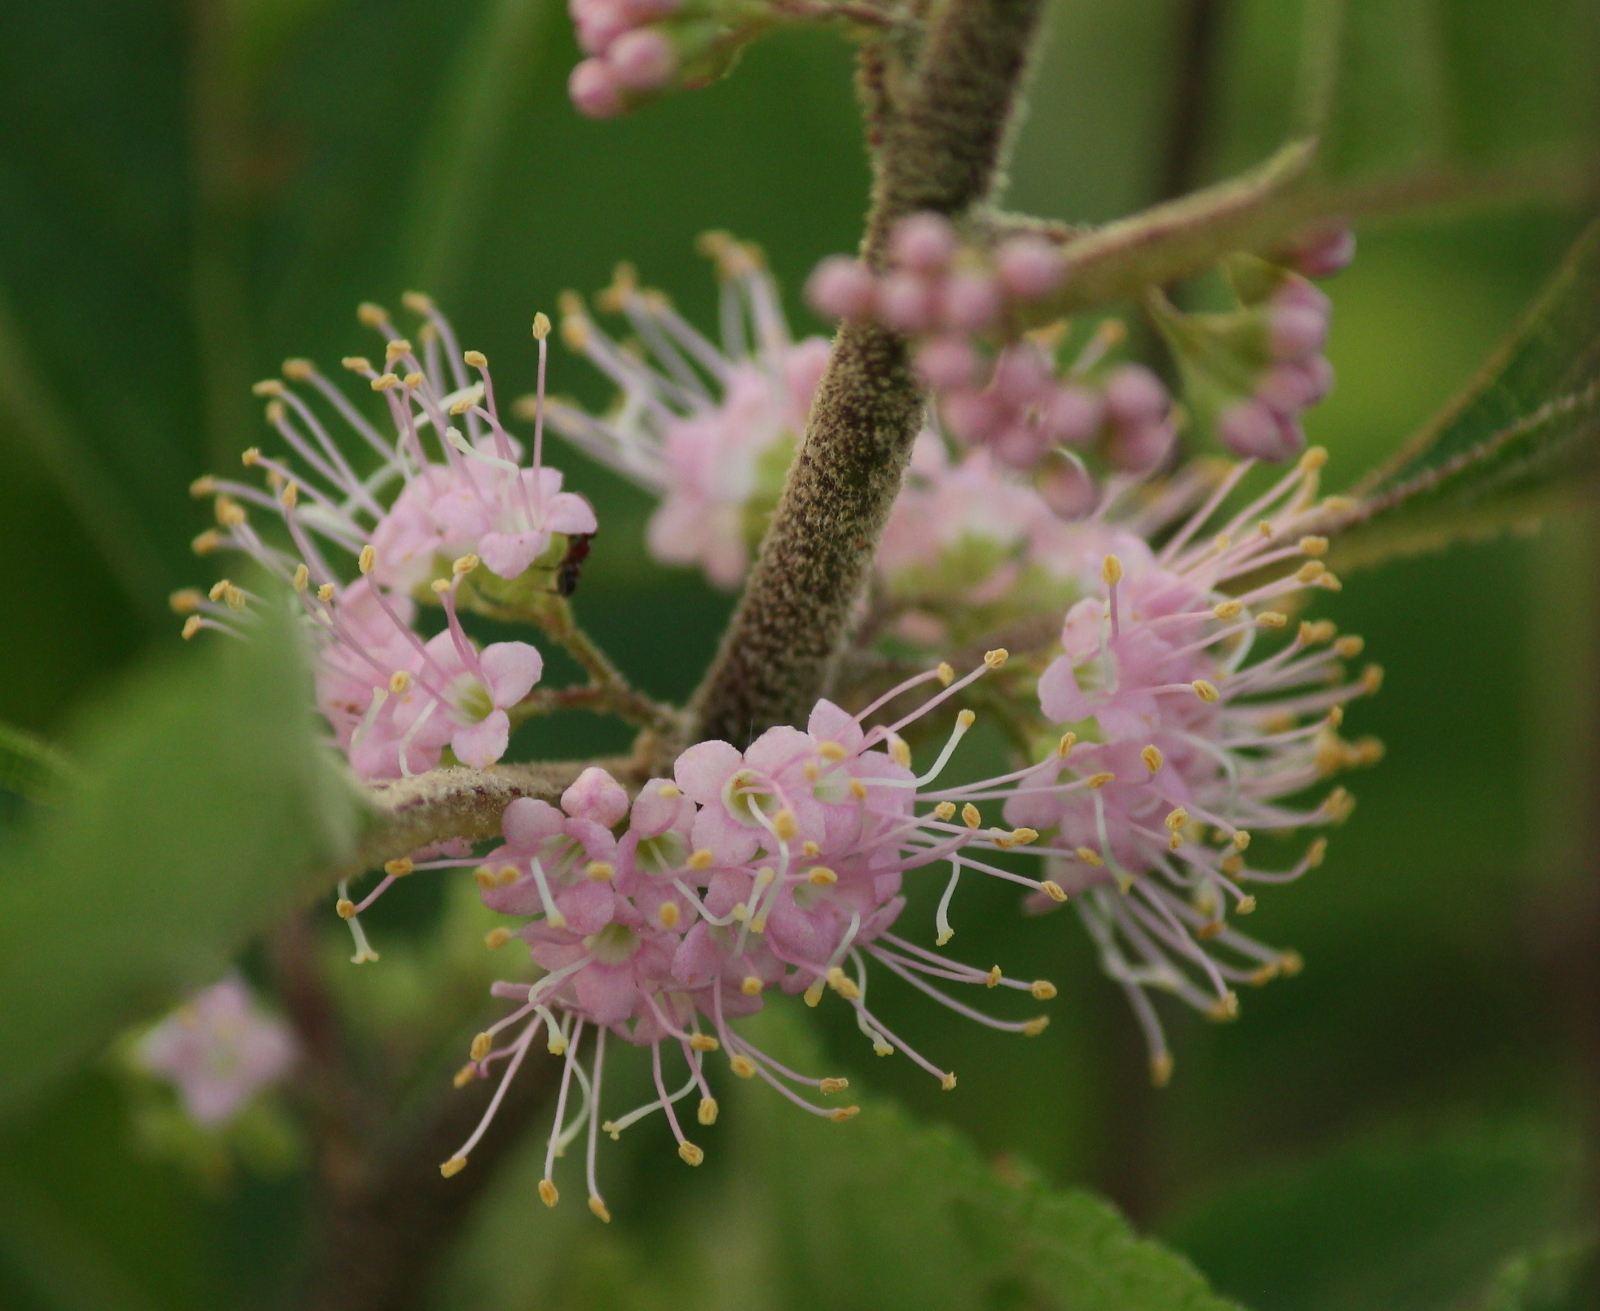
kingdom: Plantae
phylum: Tracheophyta
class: Magnoliopsida
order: Lamiales
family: Lamiaceae
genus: Callicarpa
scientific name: Callicarpa americana
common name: American beautyberry
